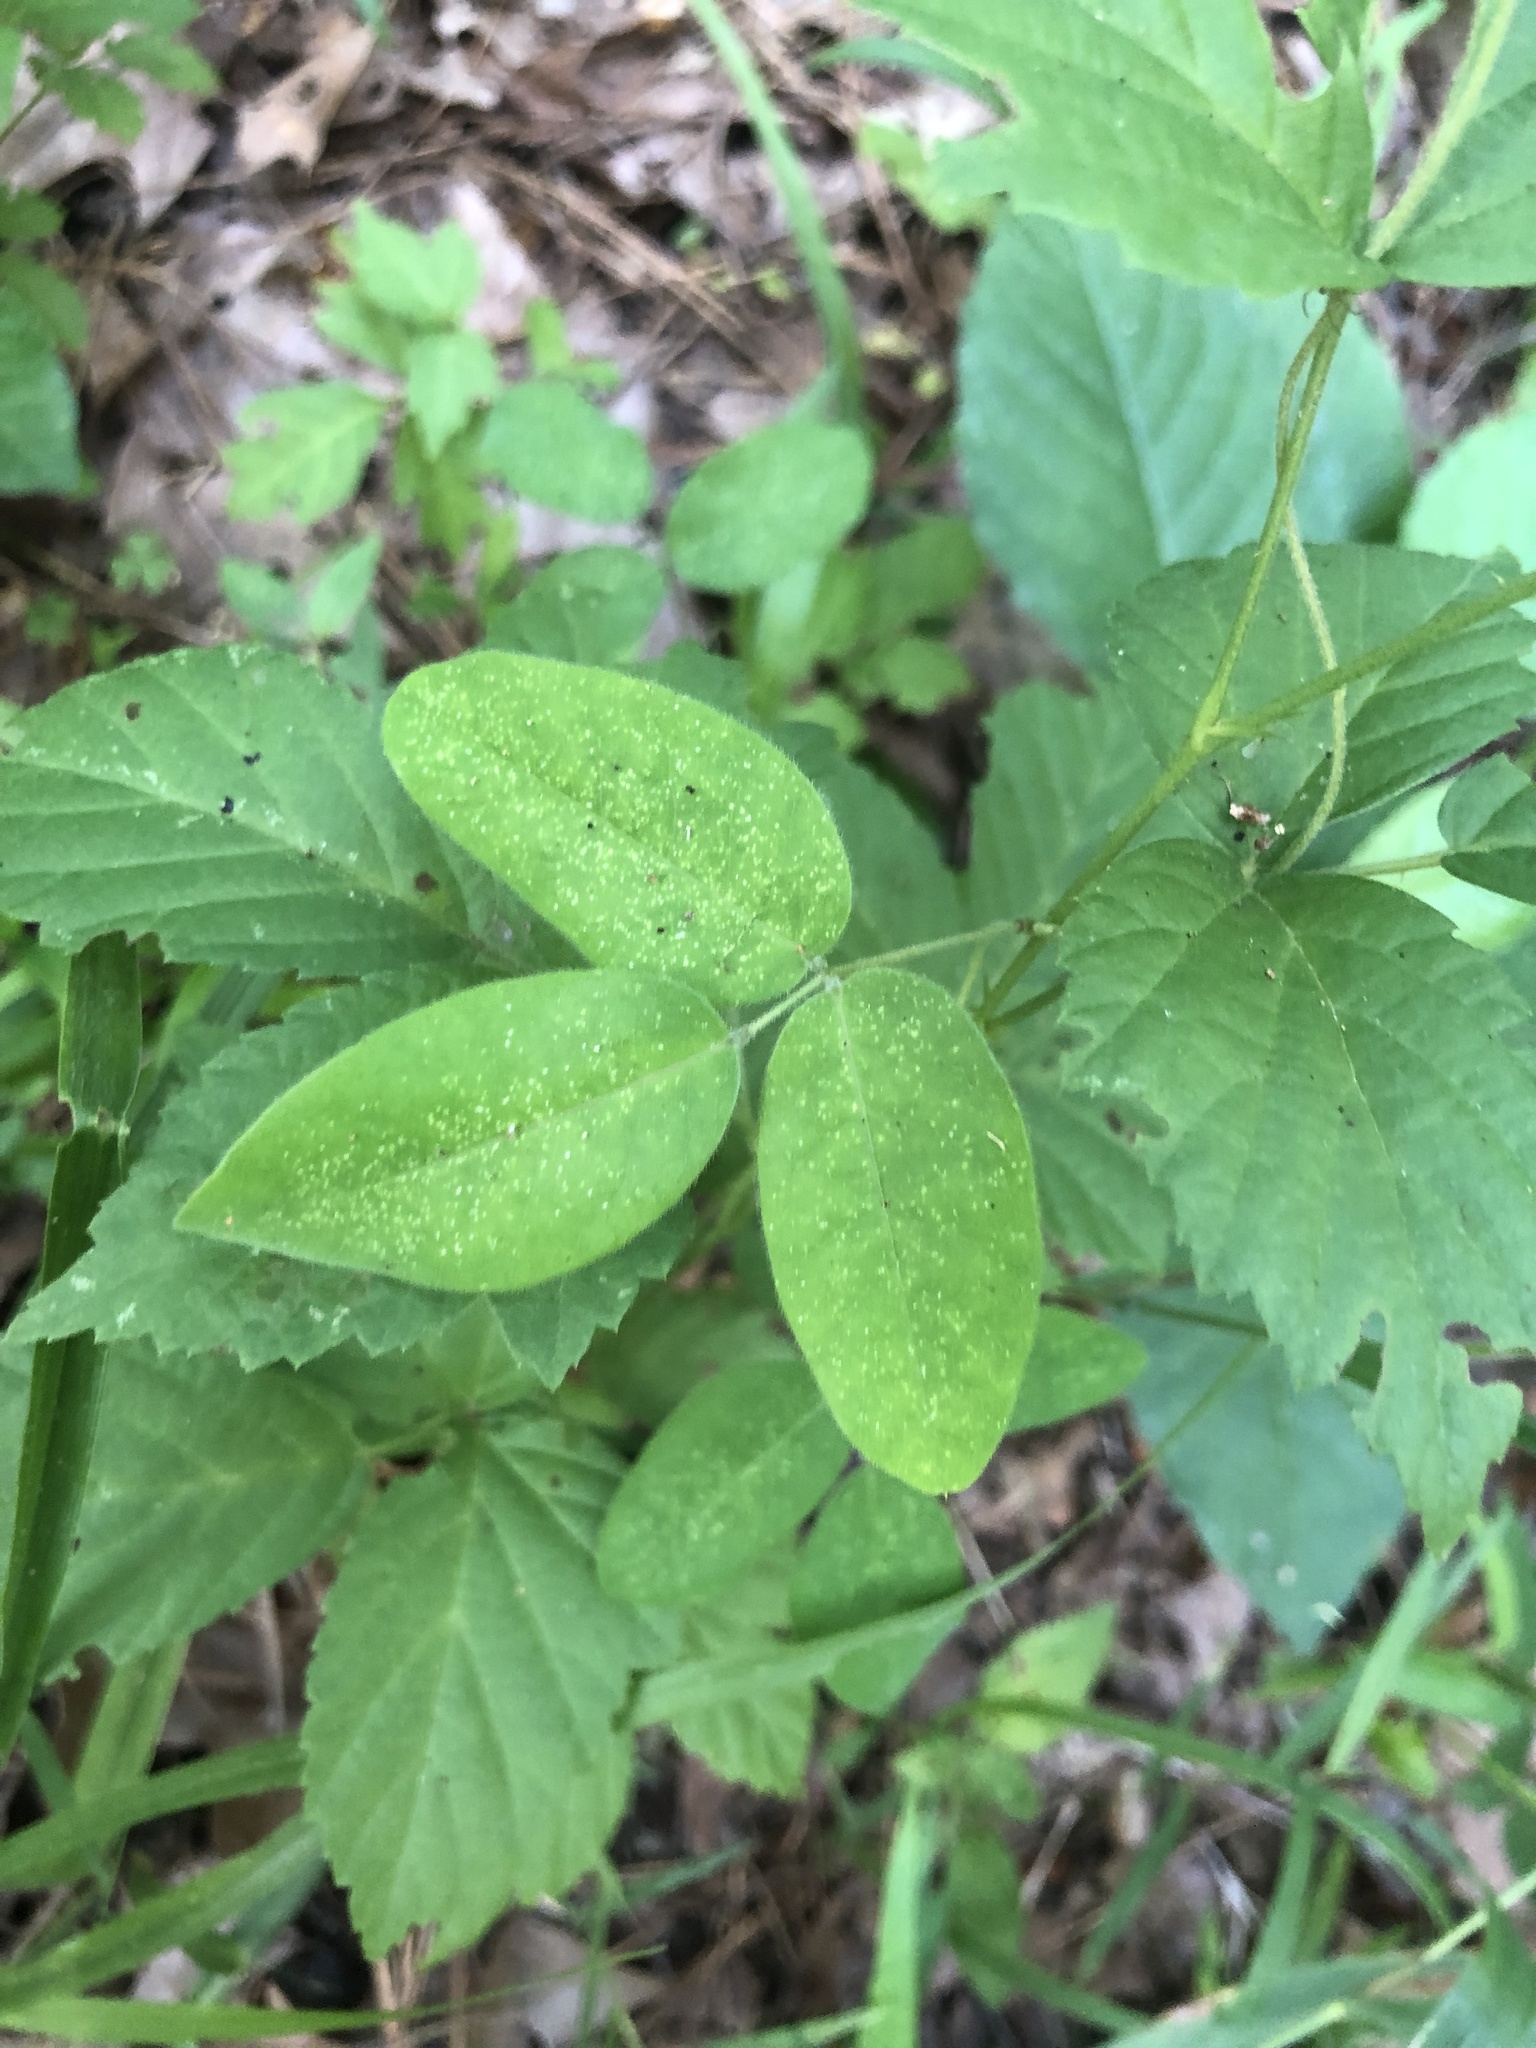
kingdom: Plantae
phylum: Tracheophyta
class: Magnoliopsida
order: Fabales
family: Fabaceae
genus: Galactia
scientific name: Galactia volubilis
